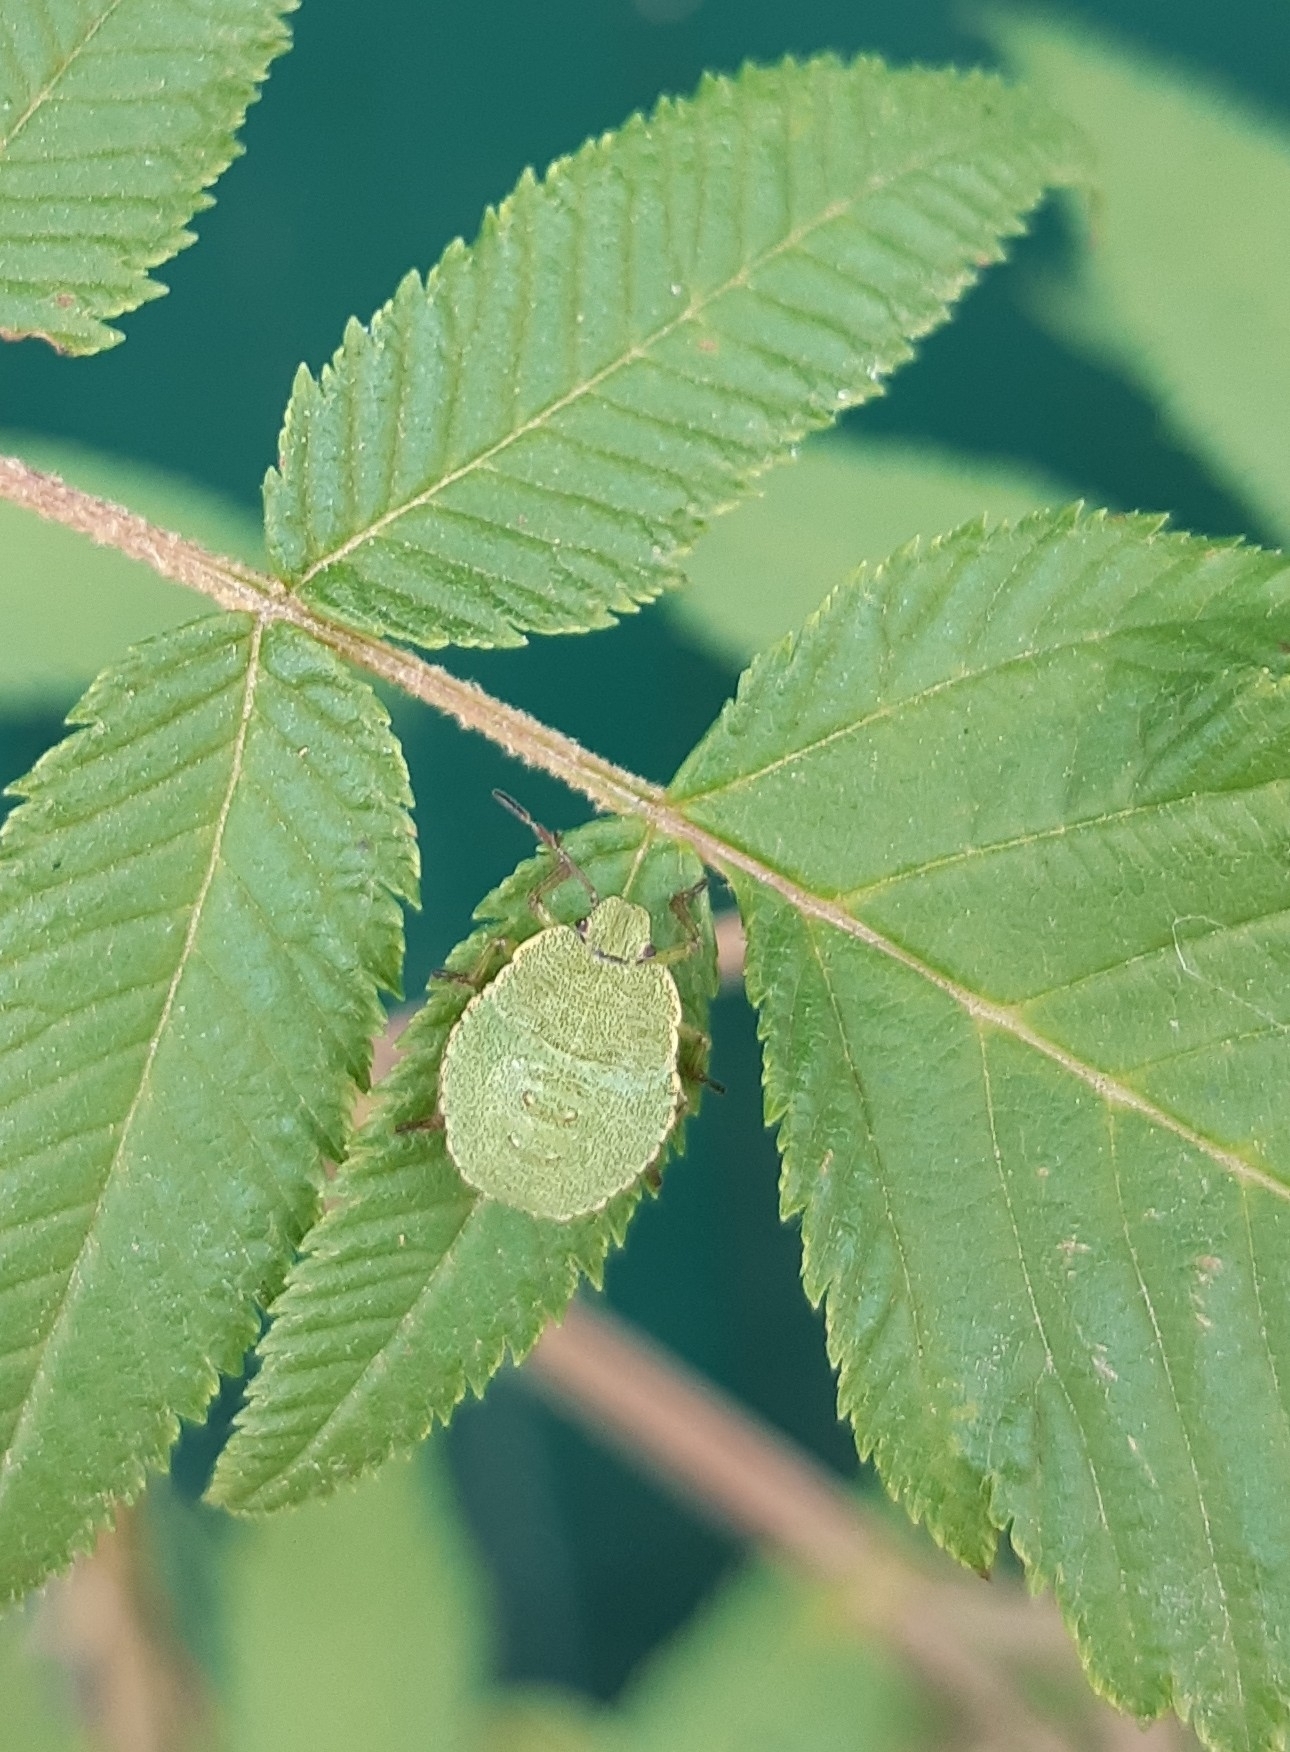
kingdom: Animalia
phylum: Arthropoda
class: Insecta
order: Hemiptera
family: Pentatomidae
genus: Palomena
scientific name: Palomena prasina
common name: Green shieldbug
